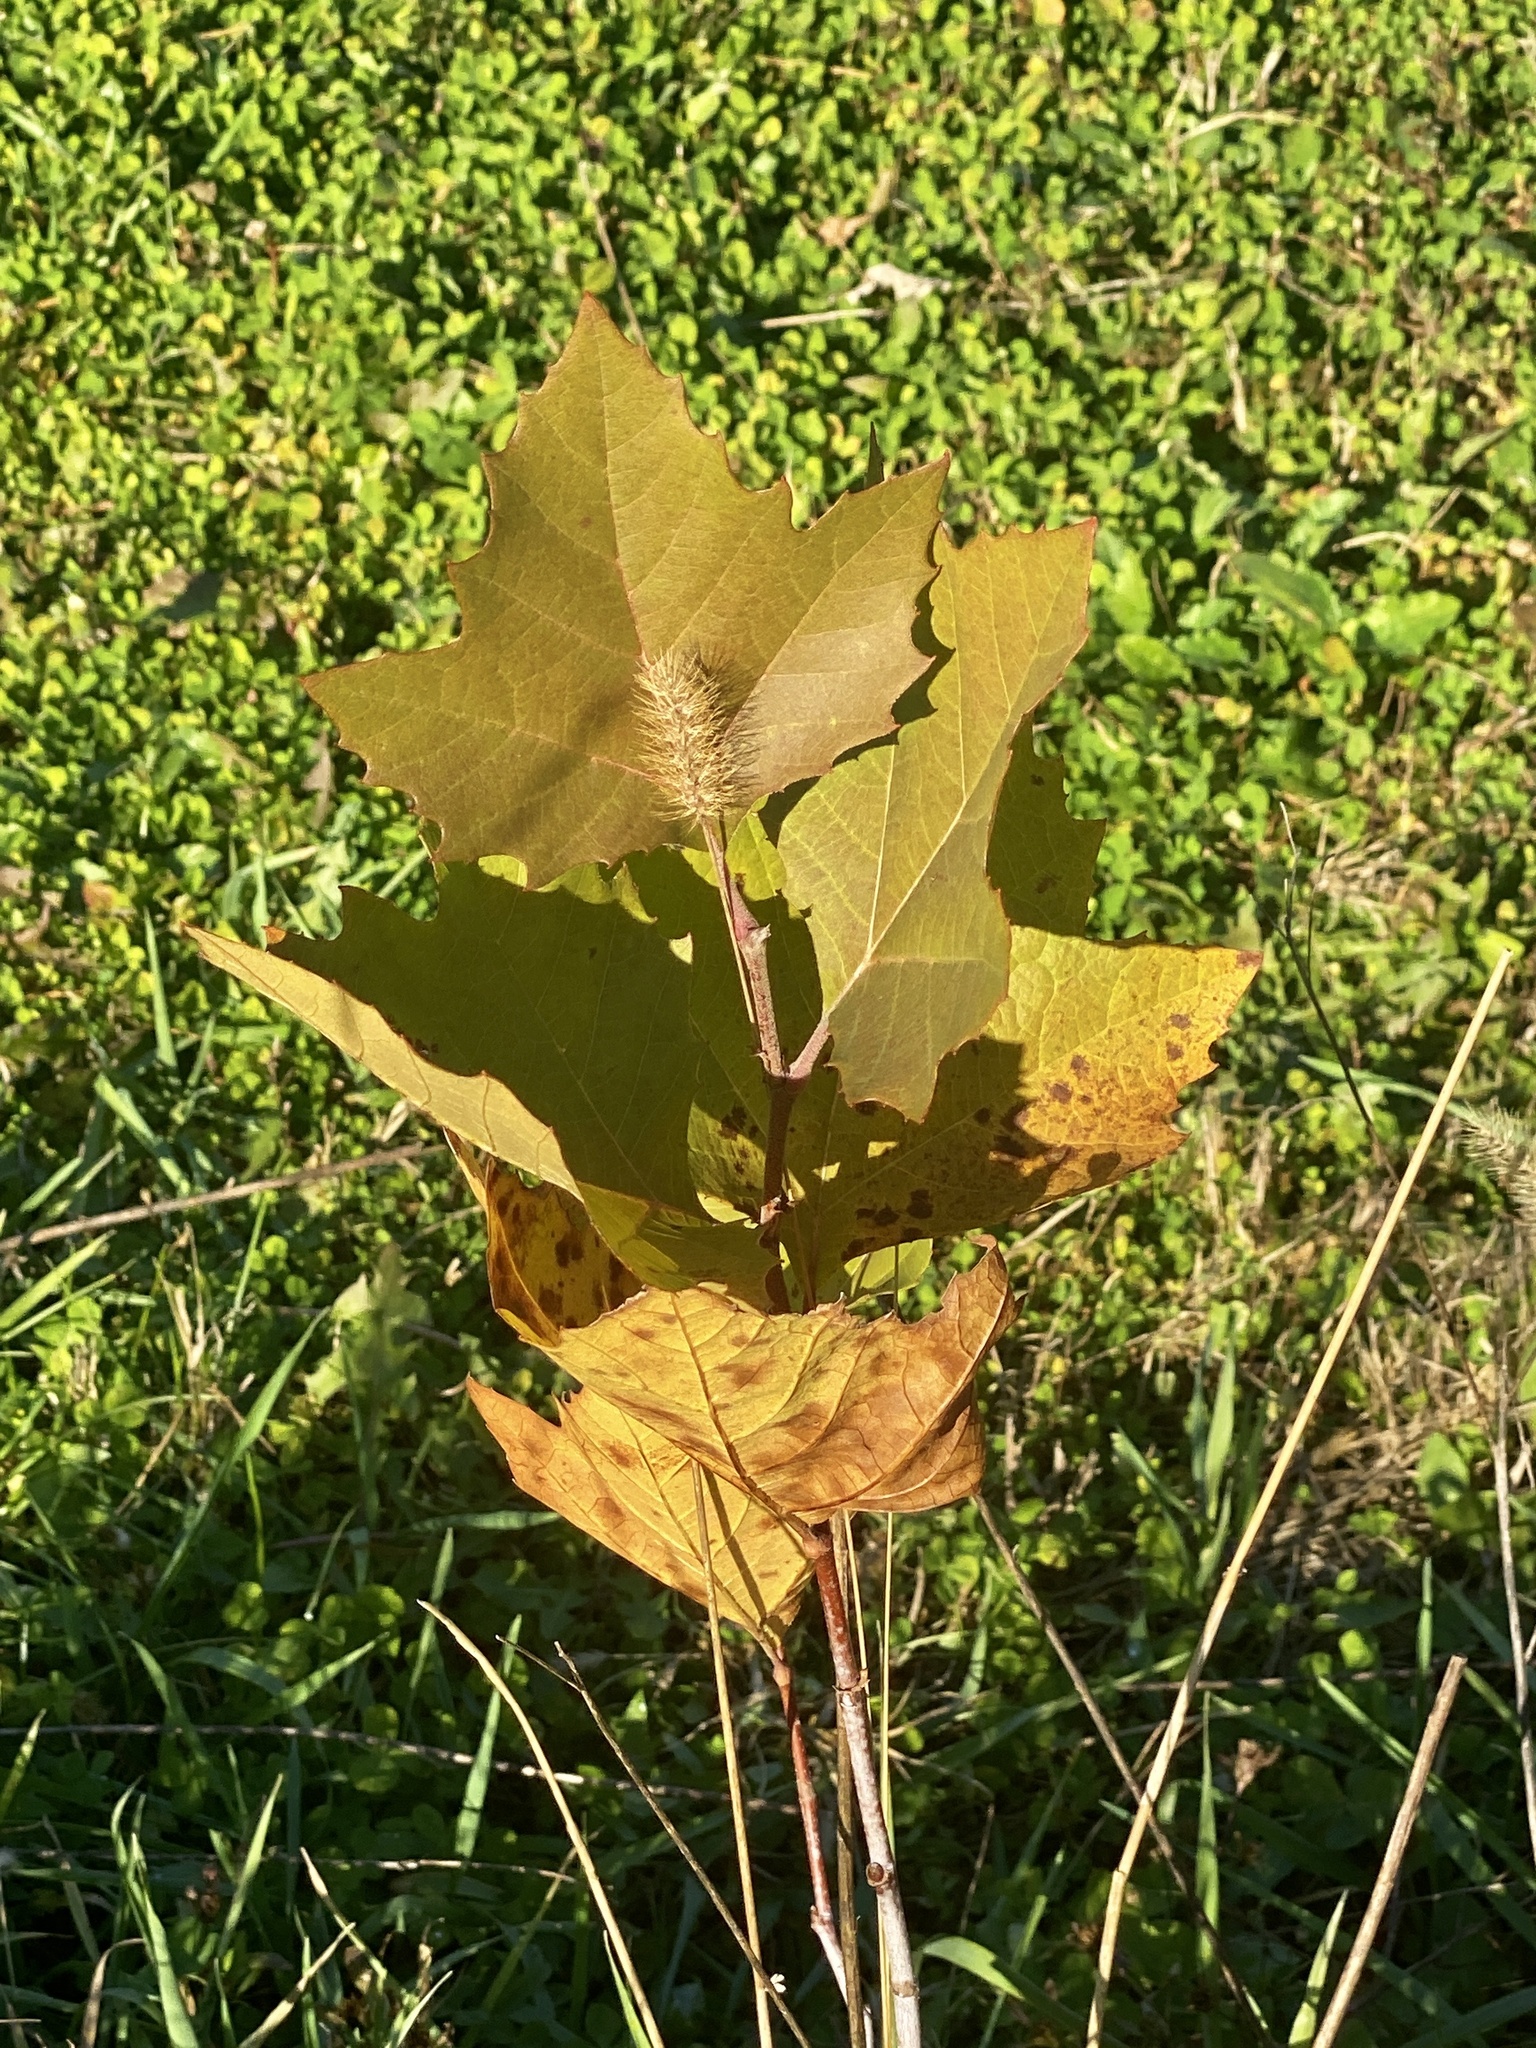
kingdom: Plantae
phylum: Tracheophyta
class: Magnoliopsida
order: Proteales
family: Platanaceae
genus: Platanus
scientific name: Platanus occidentalis
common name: American sycamore
